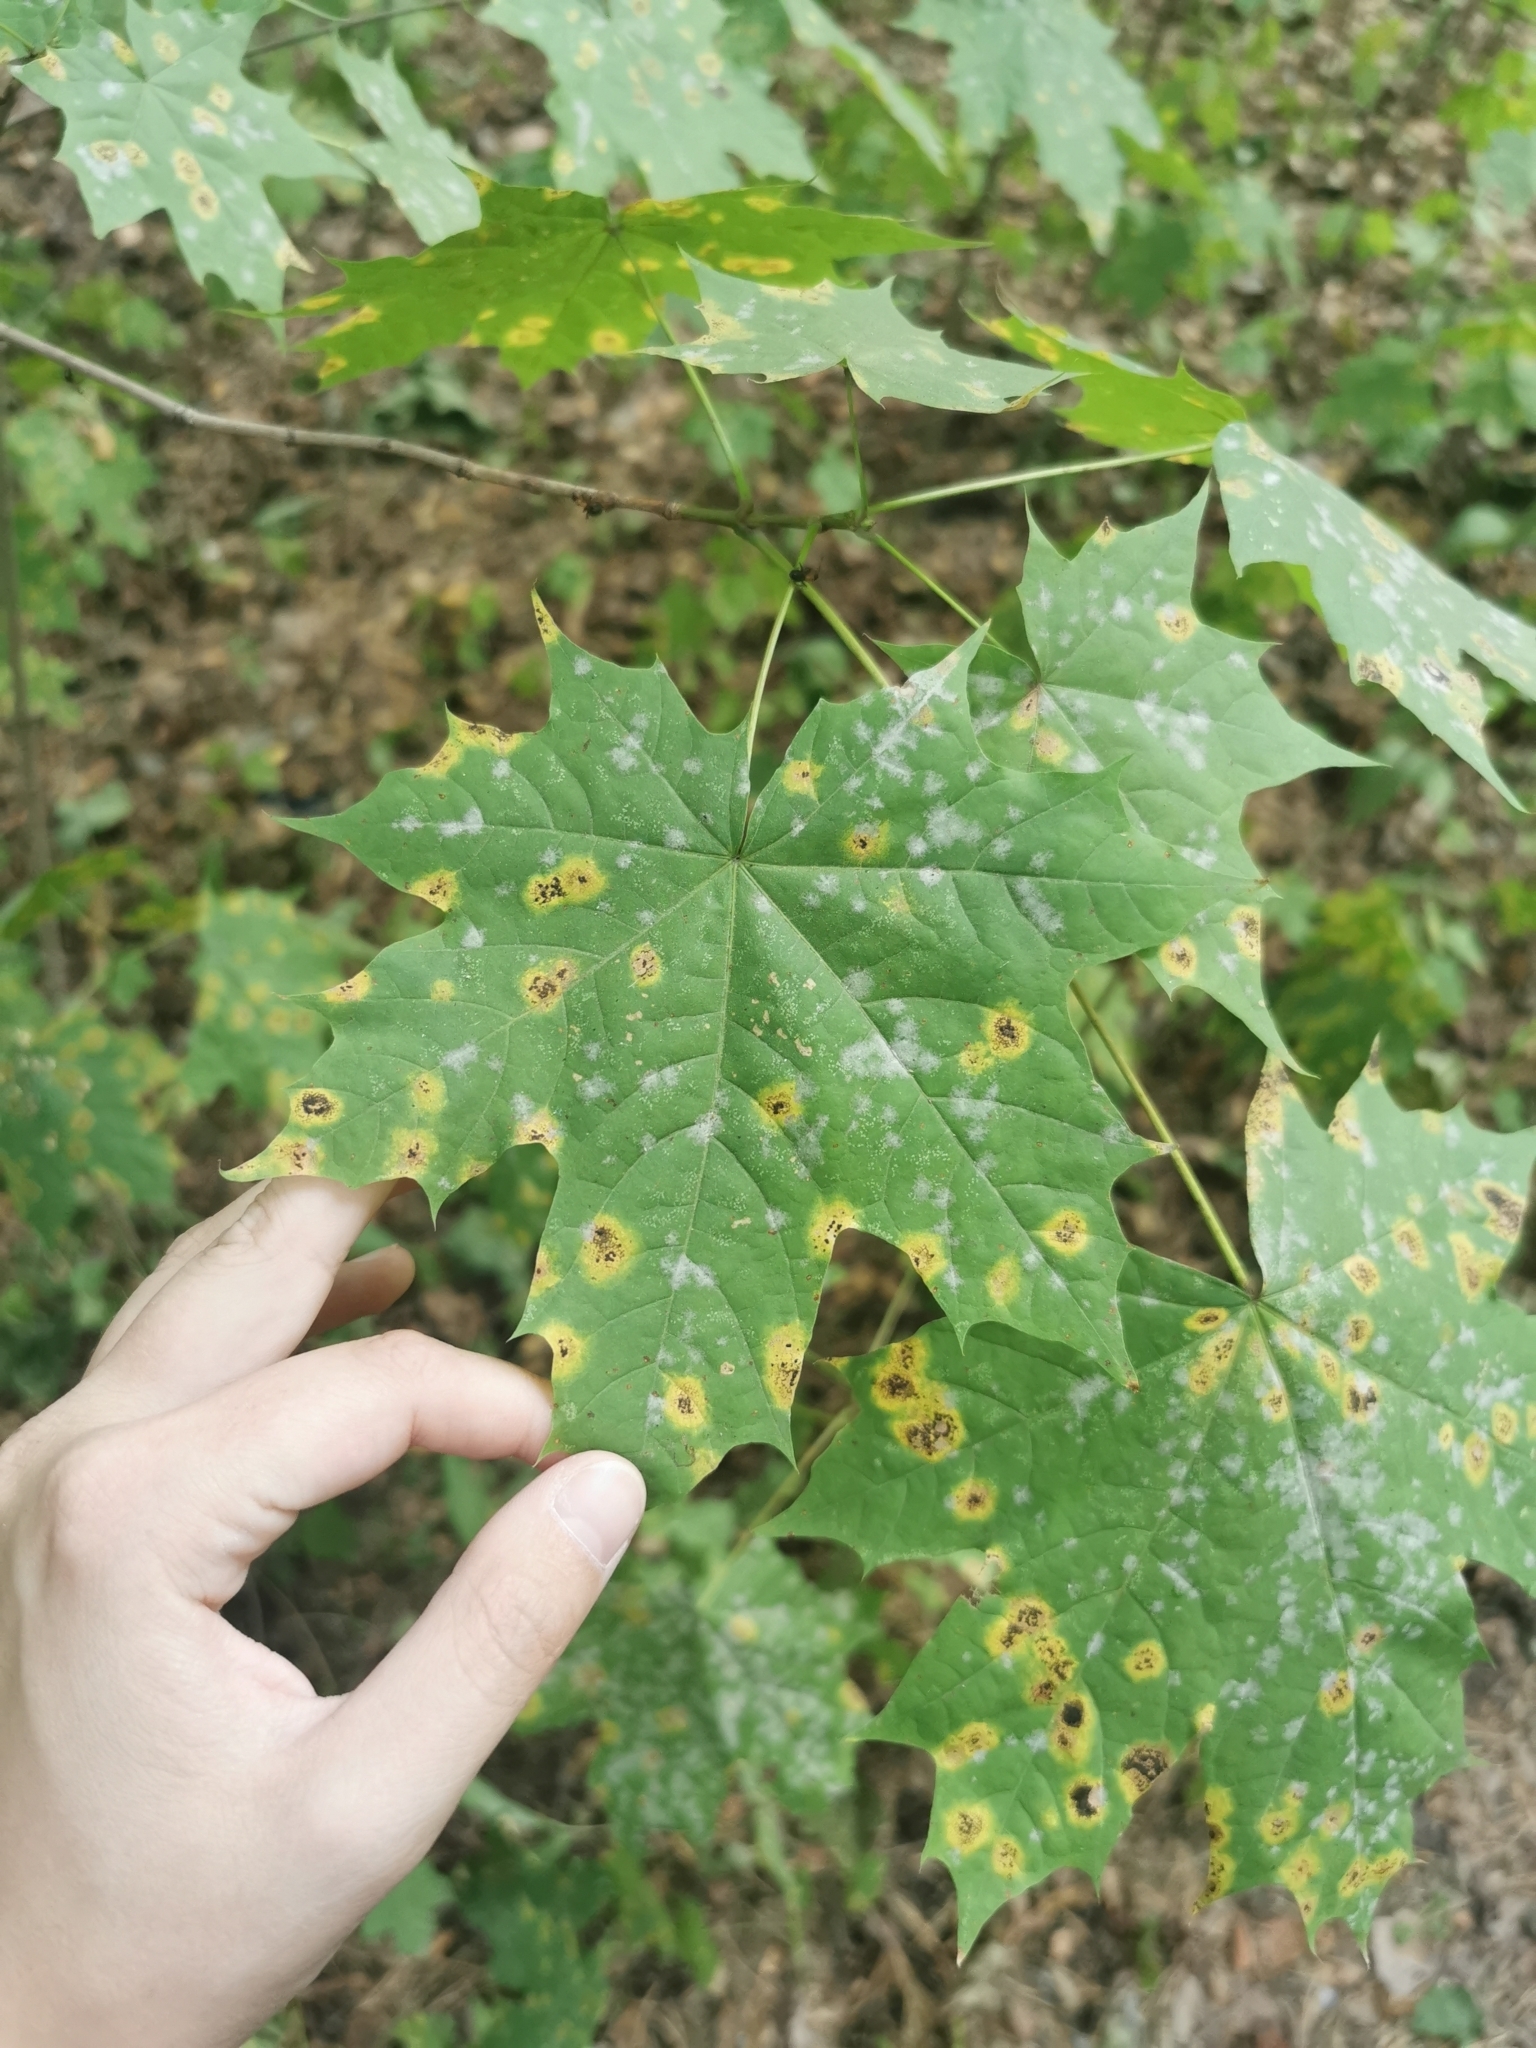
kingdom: Fungi
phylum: Ascomycota
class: Leotiomycetes
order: Rhytismatales
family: Rhytismataceae
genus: Rhytisma
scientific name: Rhytisma acerinum
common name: European tar spot
